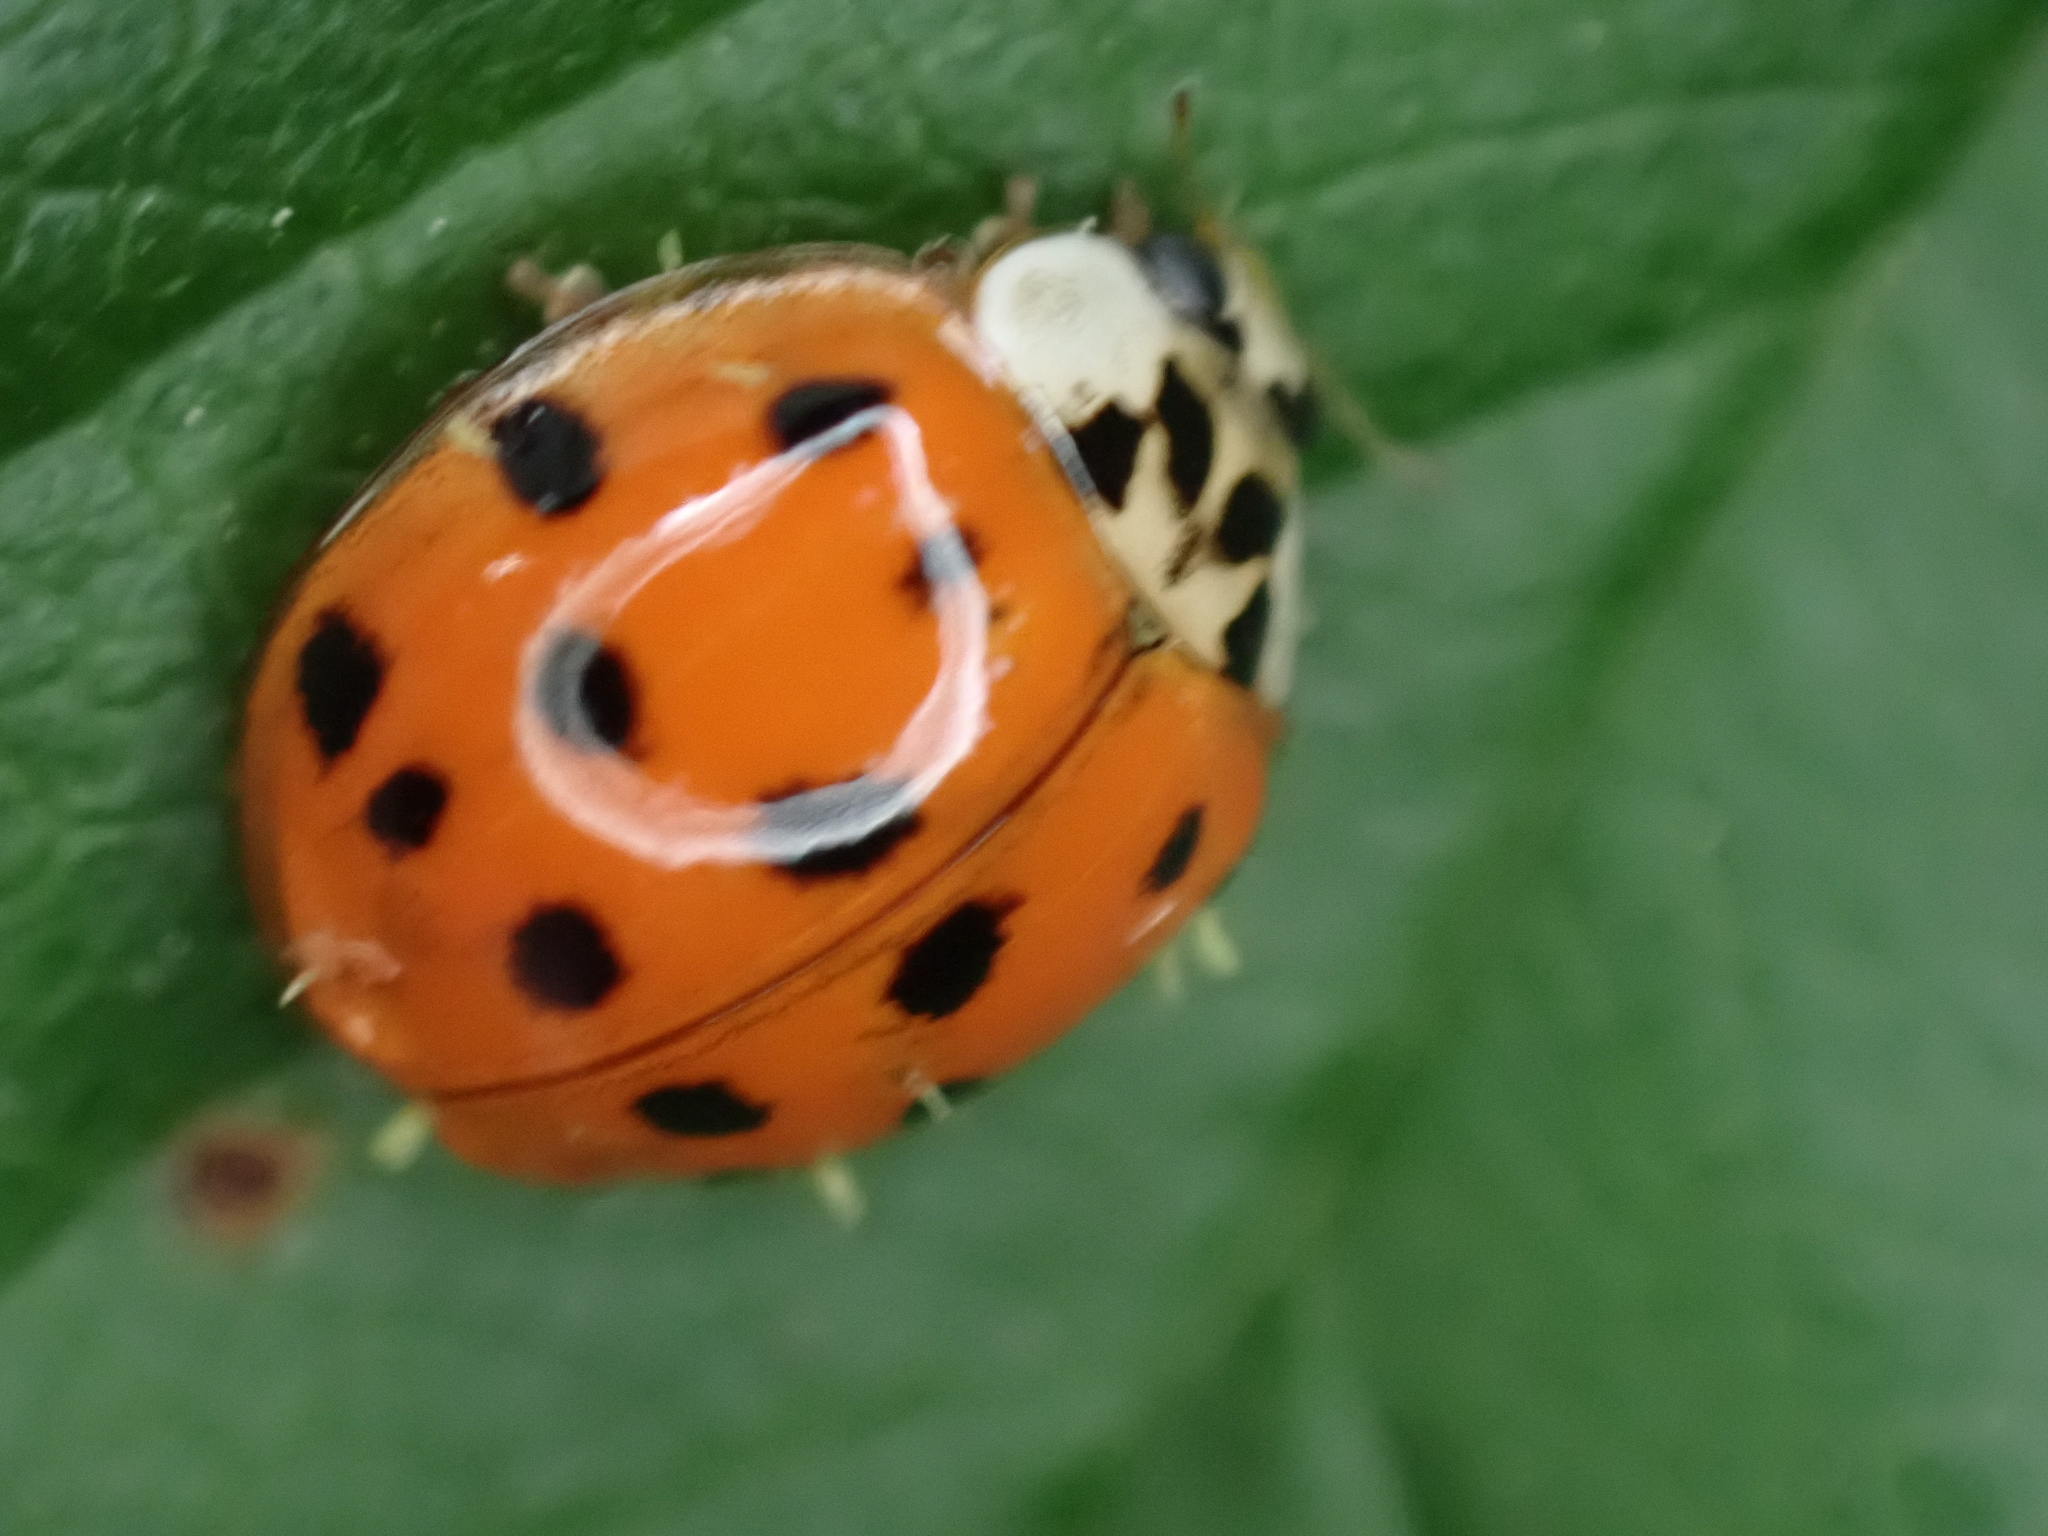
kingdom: Animalia
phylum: Arthropoda
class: Insecta
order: Coleoptera
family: Coccinellidae
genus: Harmonia
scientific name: Harmonia axyridis
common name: Harlequin ladybird
